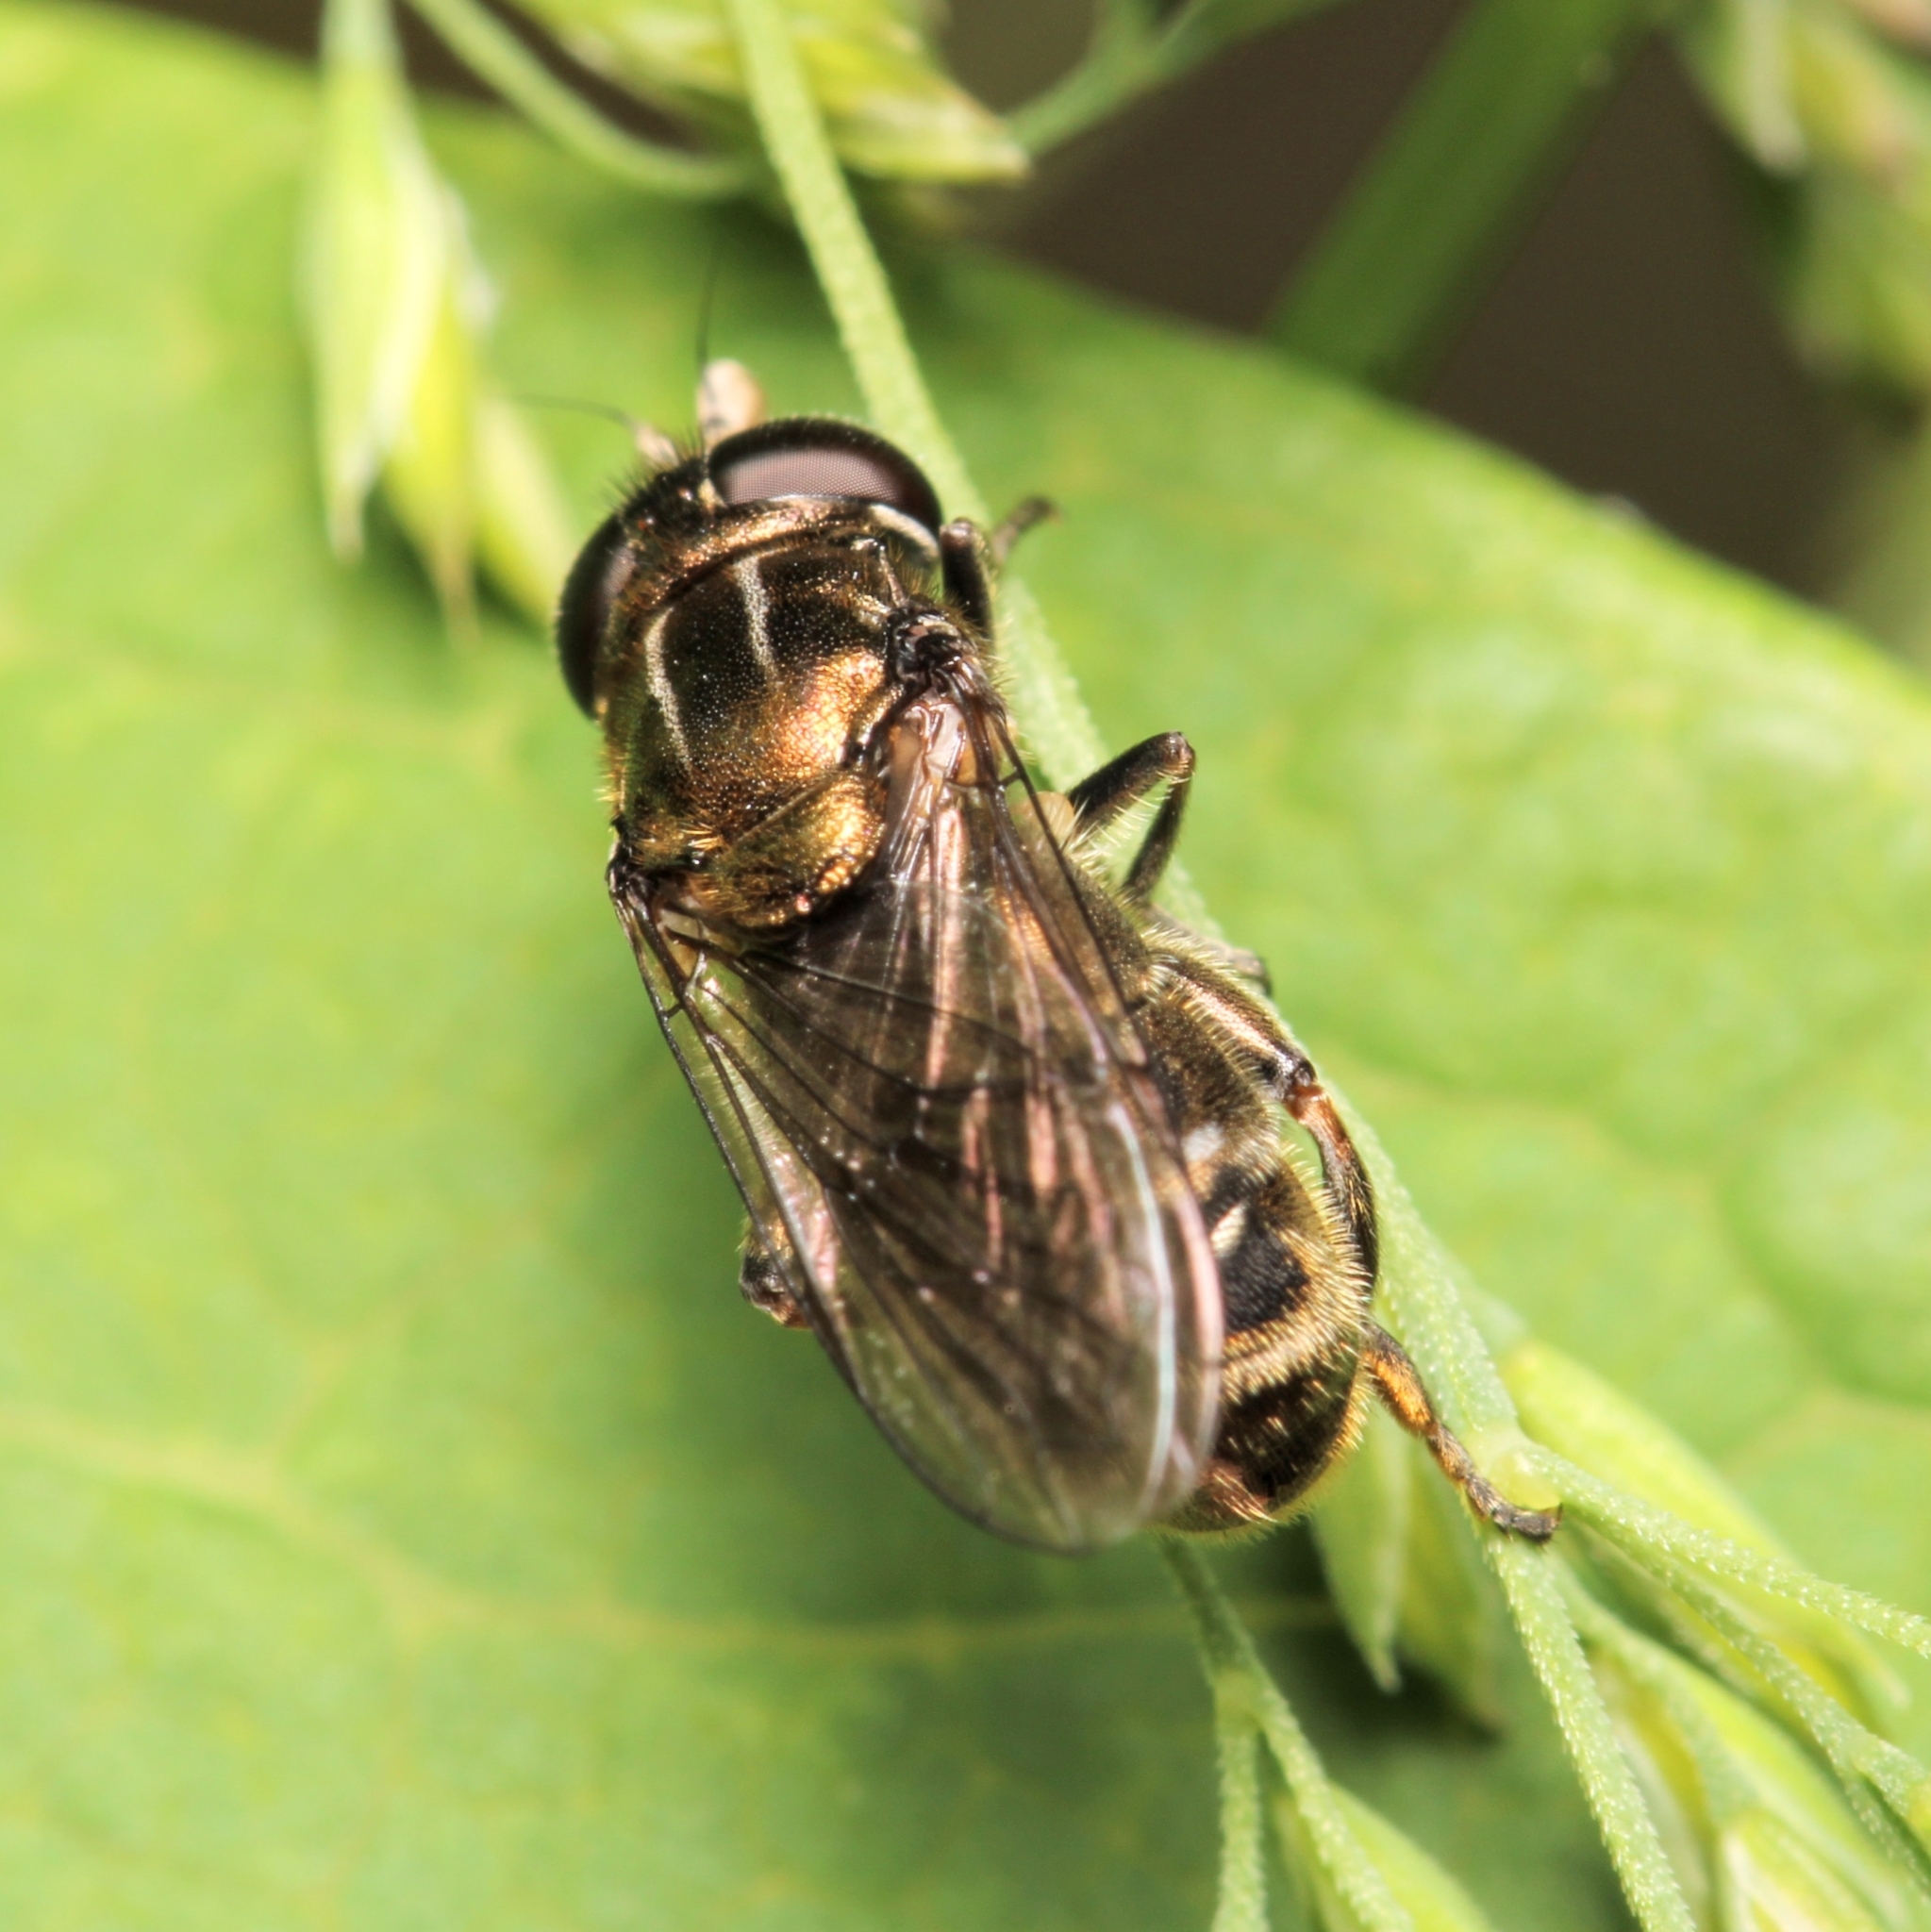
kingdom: Animalia
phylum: Arthropoda
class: Insecta
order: Diptera
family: Syrphidae
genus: Eumerus
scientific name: Eumerus
